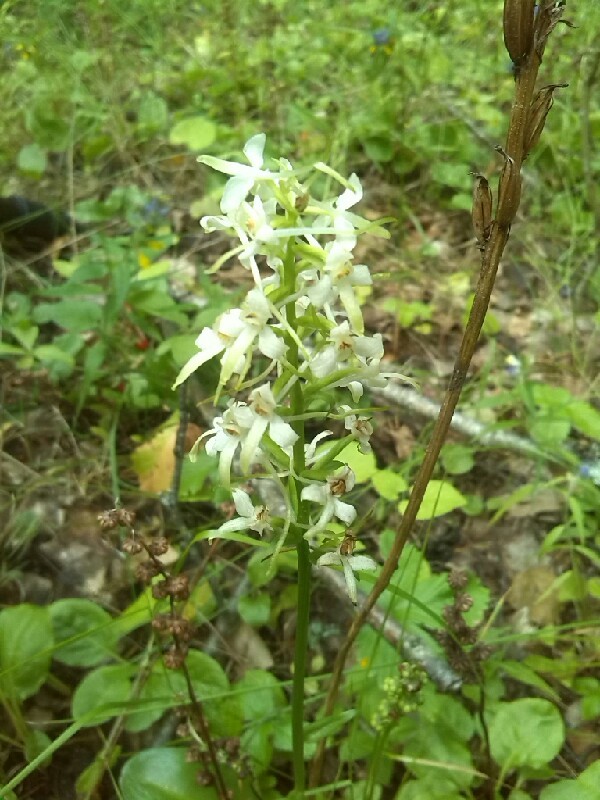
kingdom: Plantae
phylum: Tracheophyta
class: Liliopsida
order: Asparagales
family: Orchidaceae
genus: Platanthera
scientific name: Platanthera bifolia
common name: Lesser butterfly-orchid
